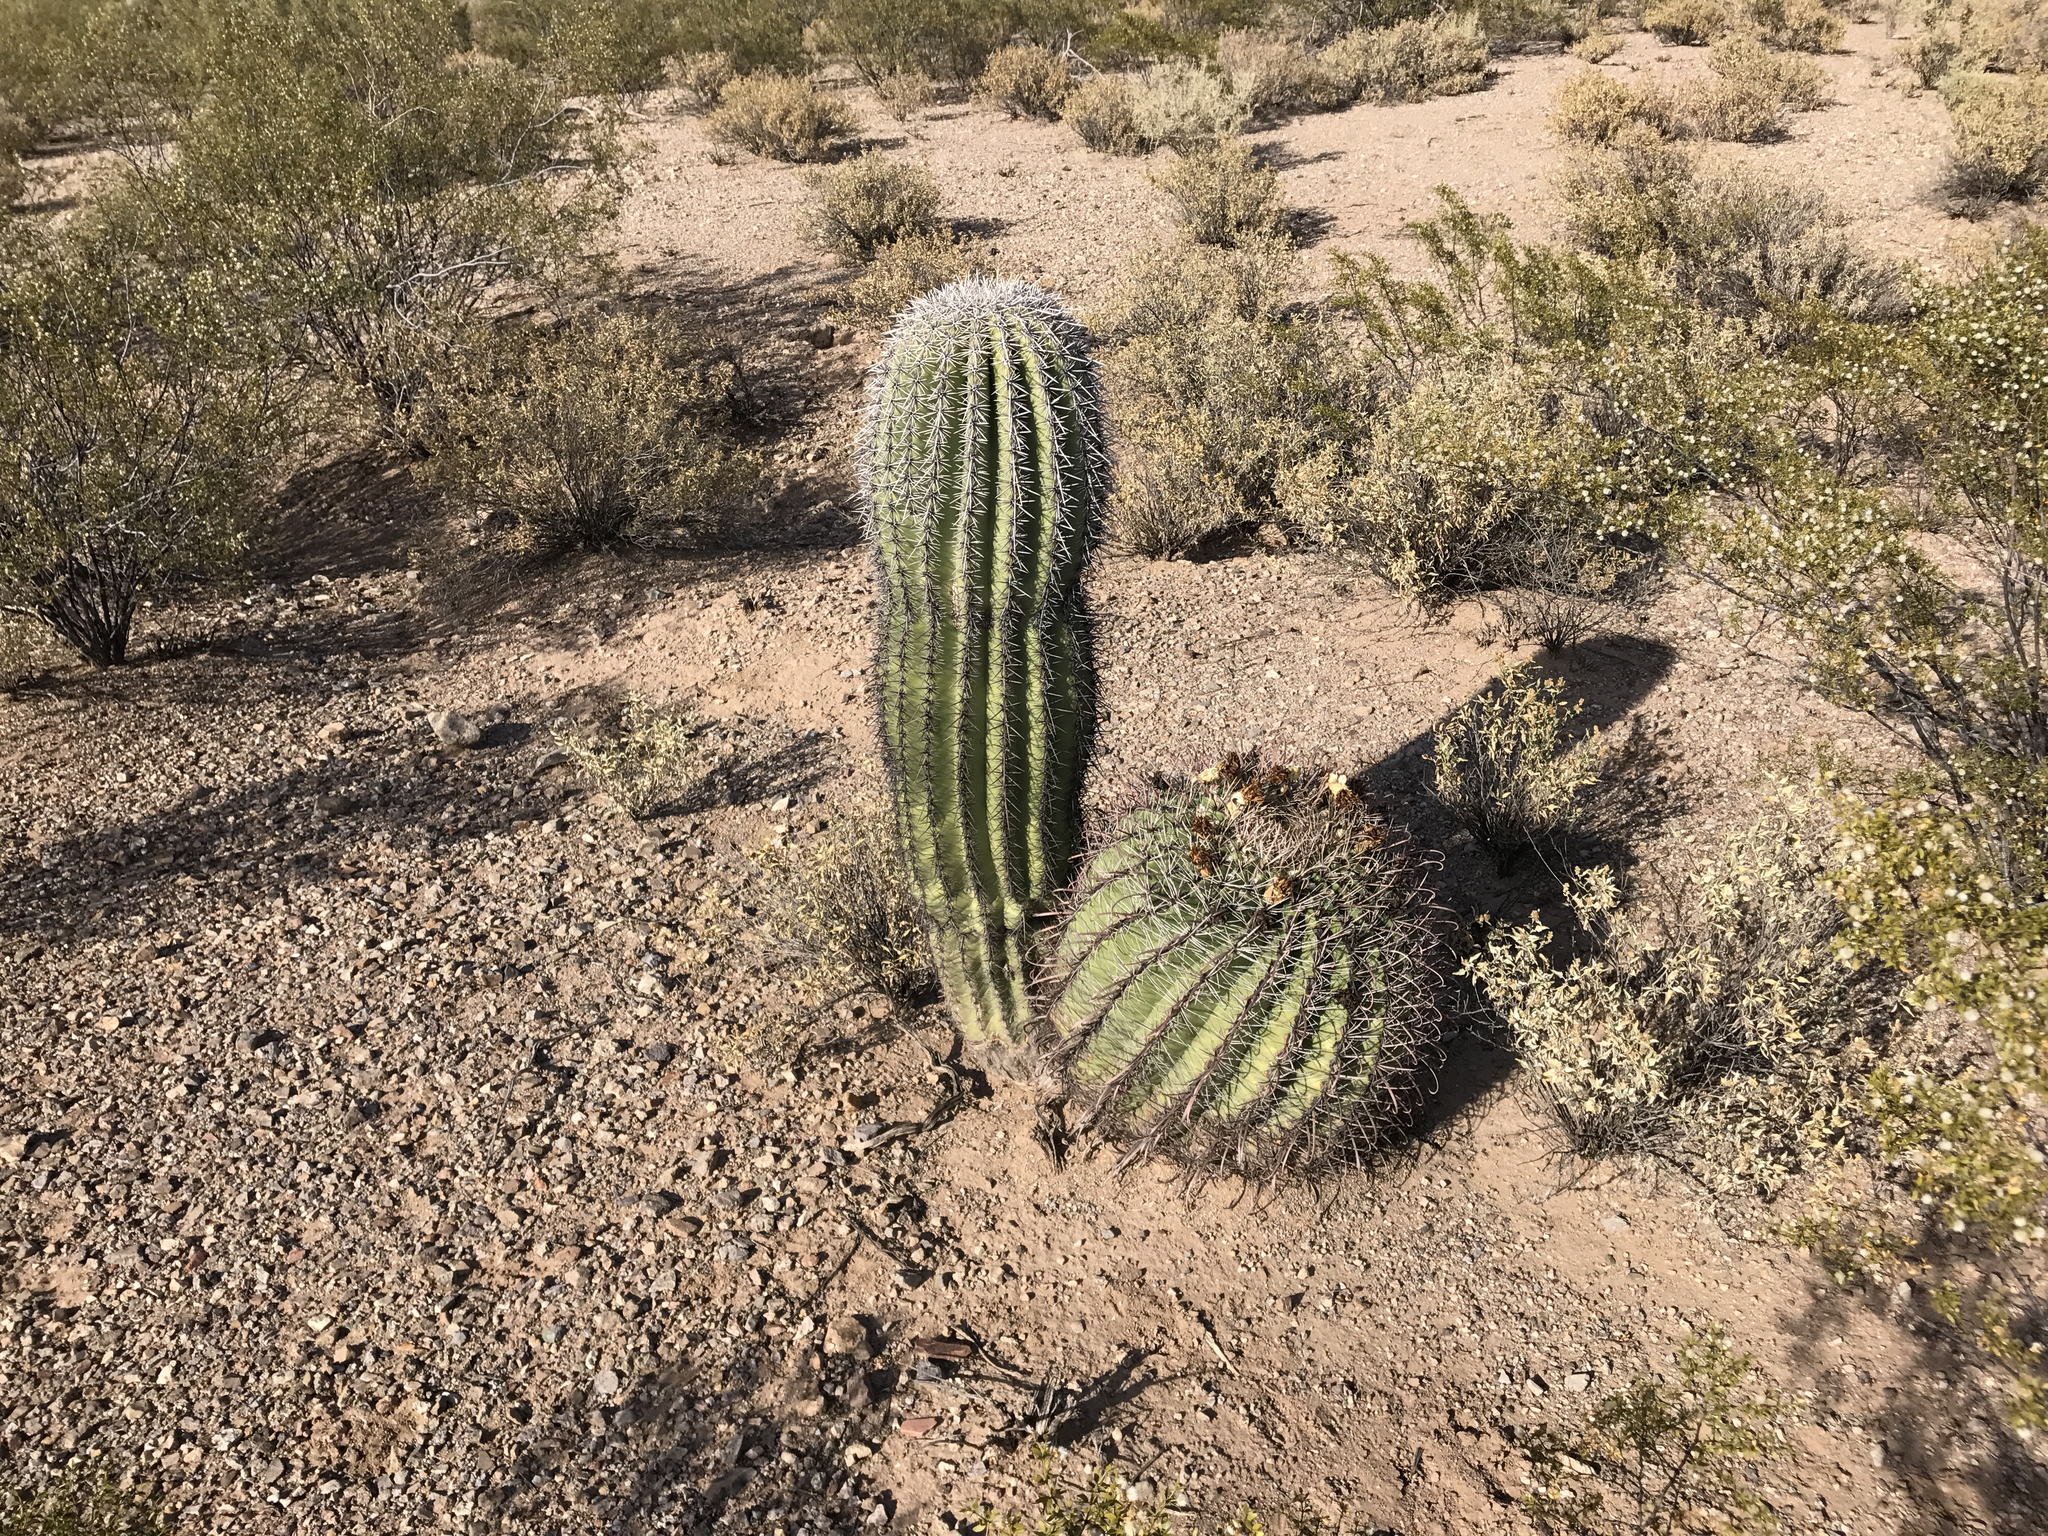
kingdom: Plantae
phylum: Tracheophyta
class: Magnoliopsida
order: Caryophyllales
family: Cactaceae
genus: Carnegiea
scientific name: Carnegiea gigantea
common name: Saguaro
